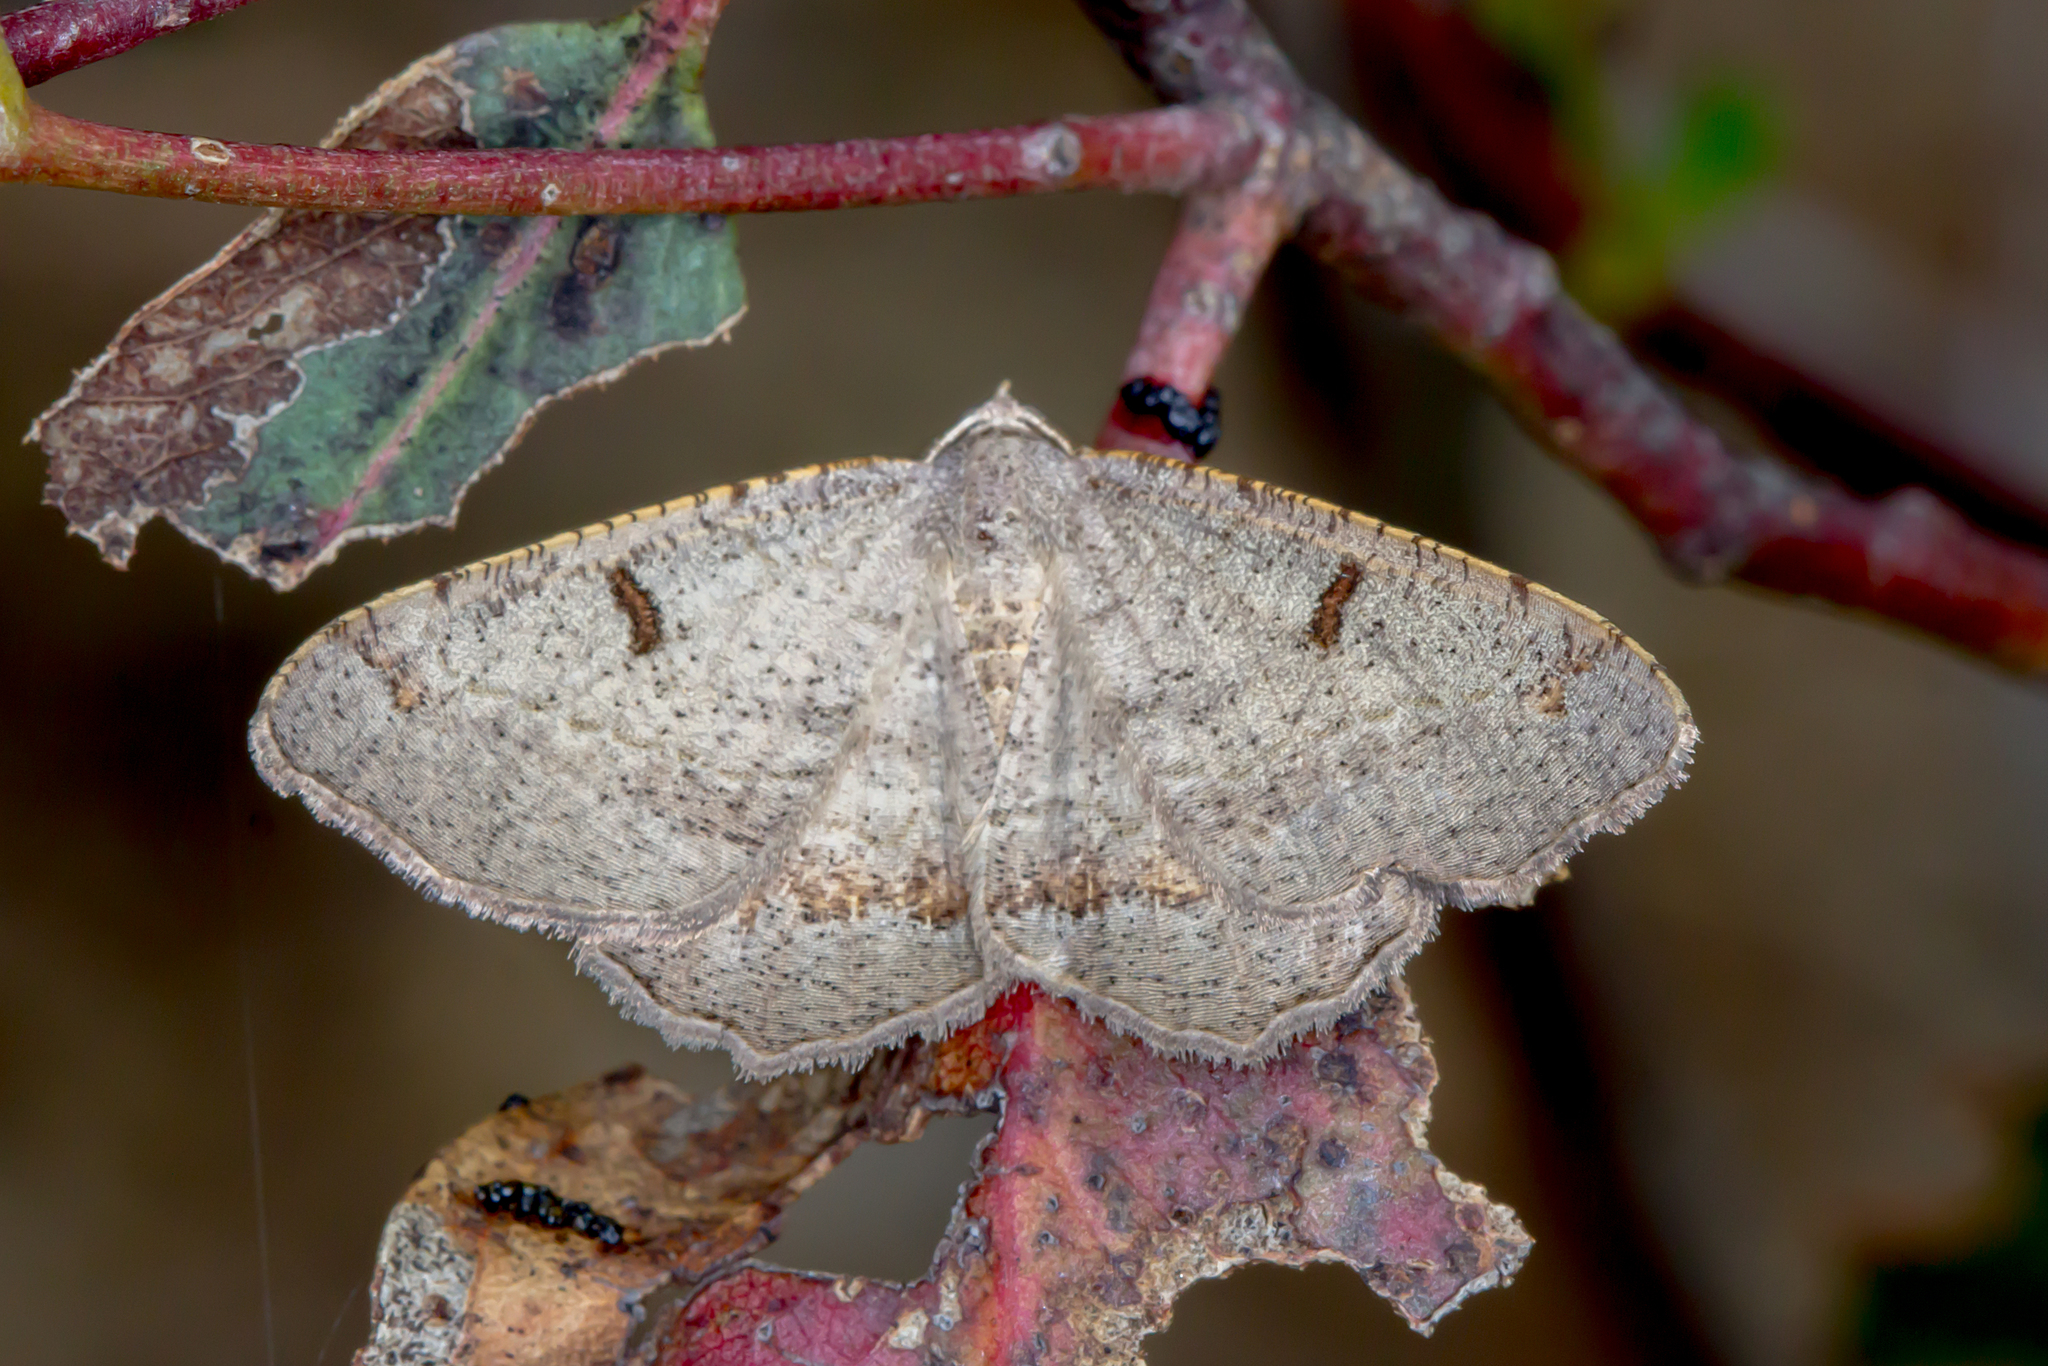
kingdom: Animalia
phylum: Arthropoda
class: Insecta
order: Lepidoptera
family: Geometridae
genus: Dissomorphia
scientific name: Dissomorphia australiaria
